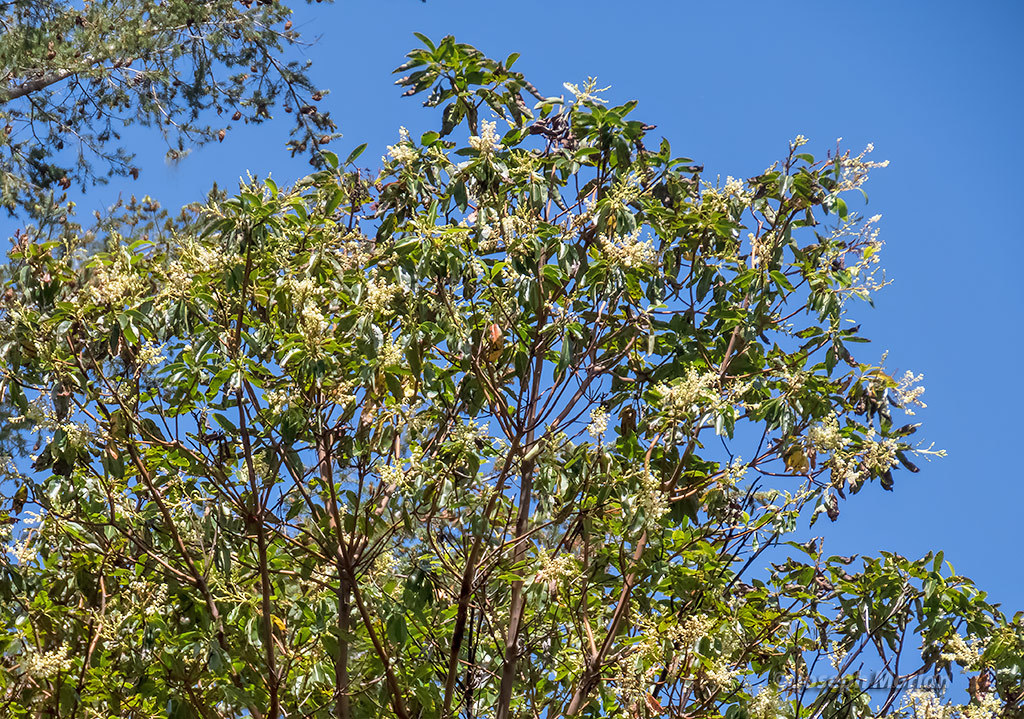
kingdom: Plantae
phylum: Tracheophyta
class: Magnoliopsida
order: Ericales
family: Ericaceae
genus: Arbutus
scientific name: Arbutus menziesii
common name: Pacific madrone
